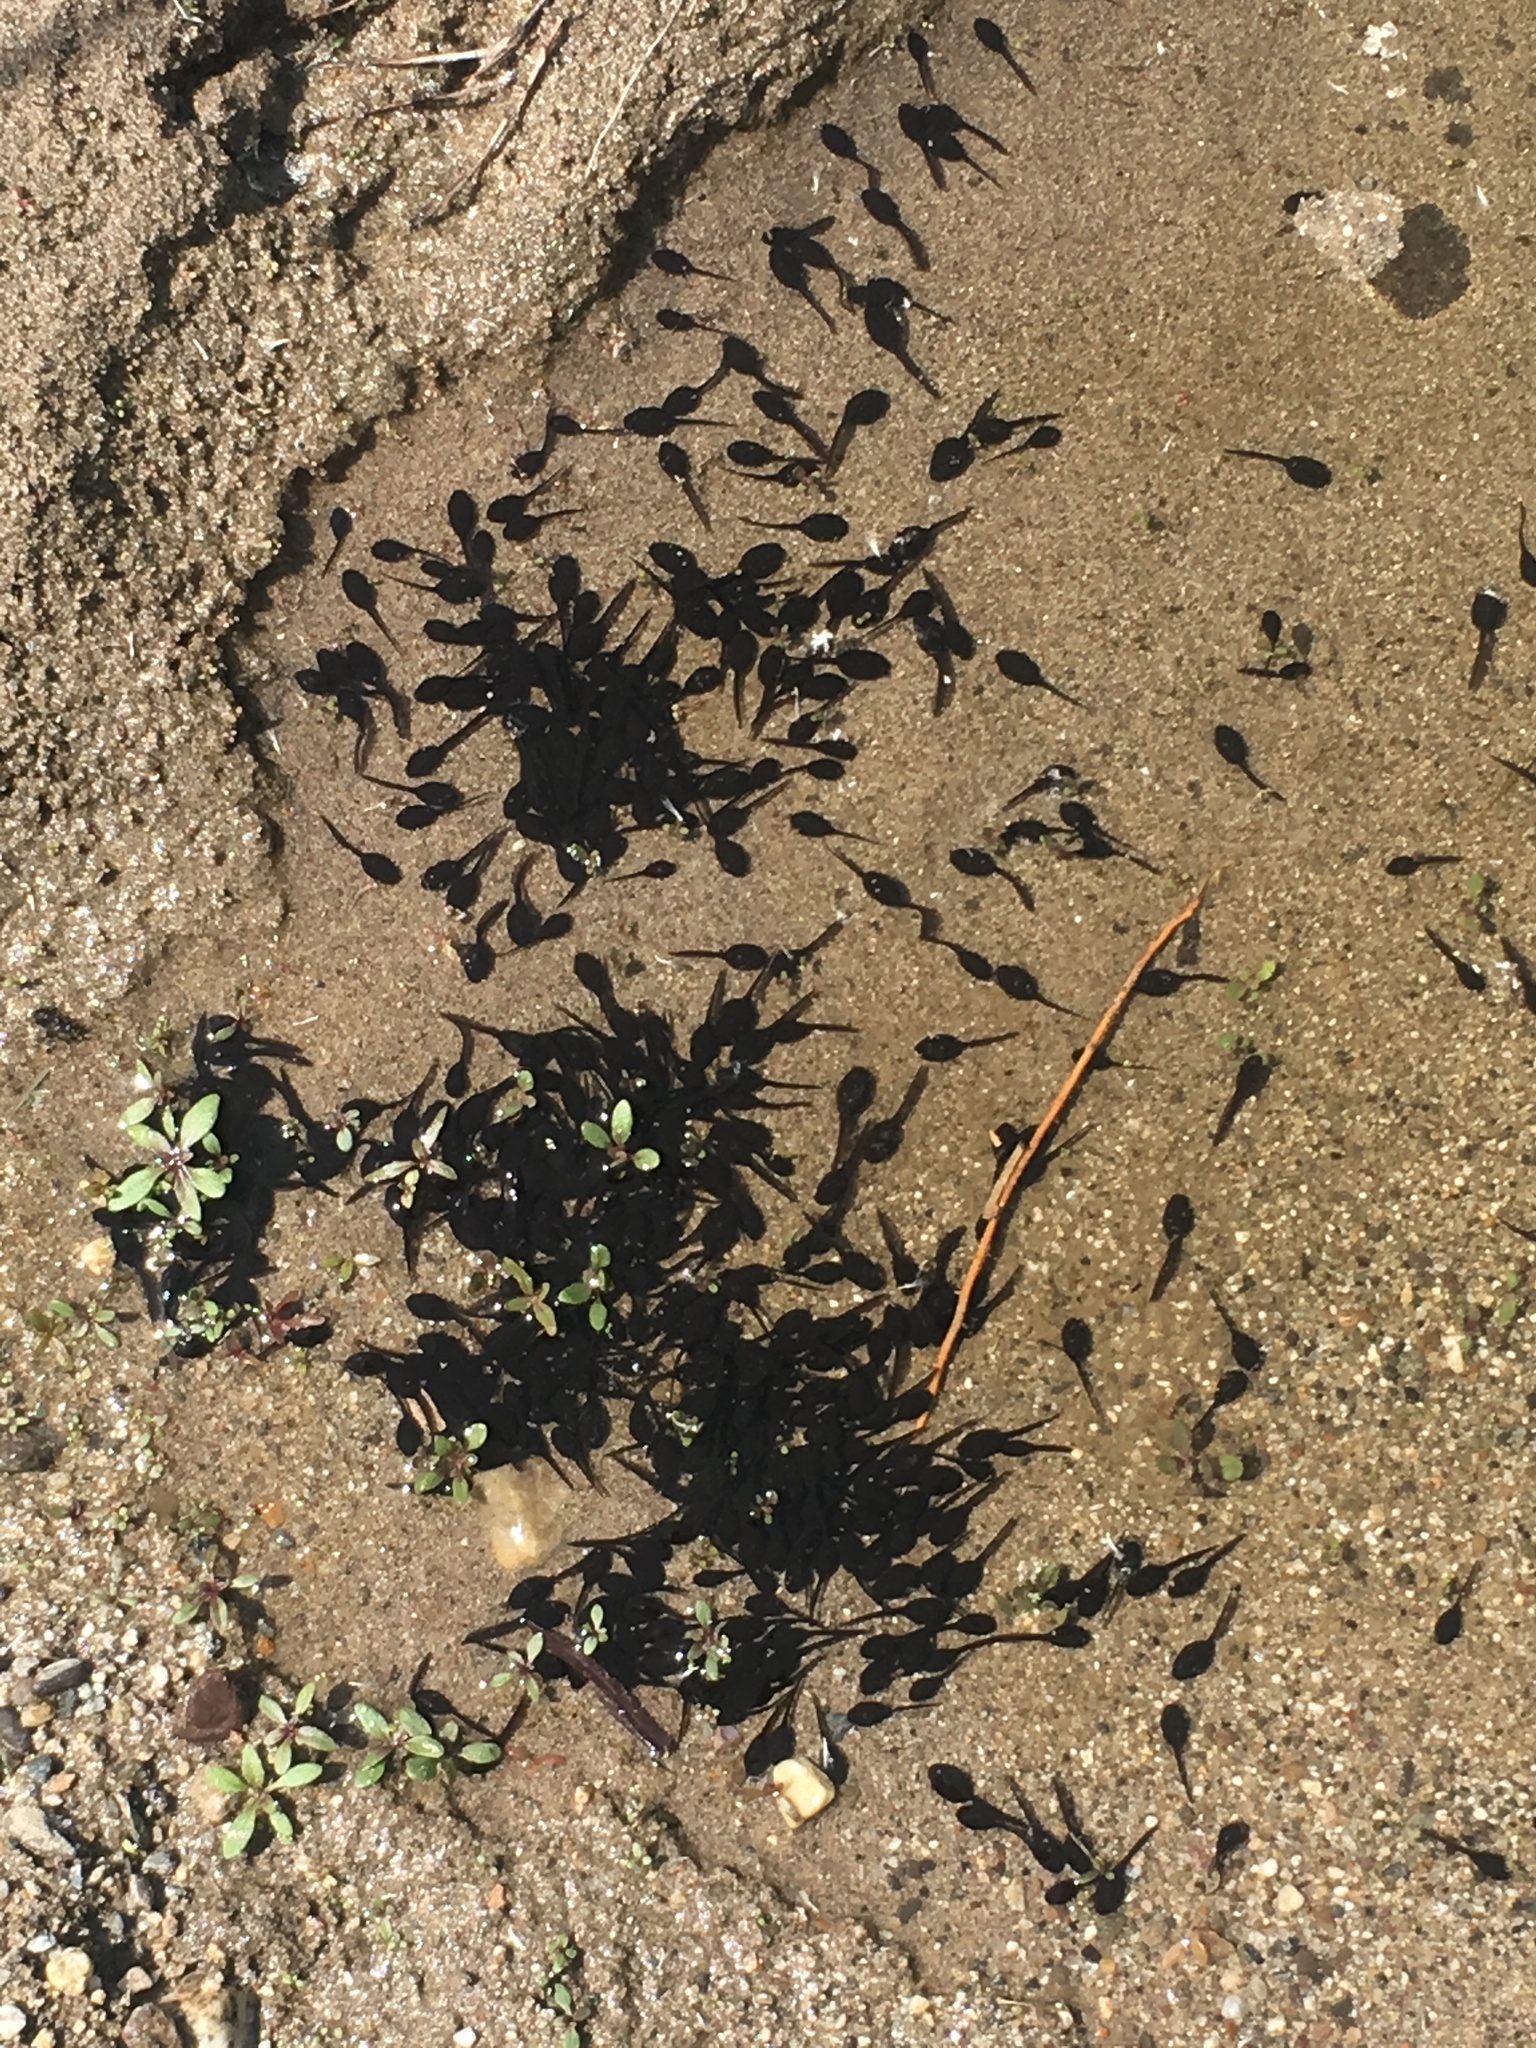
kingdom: Animalia
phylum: Chordata
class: Amphibia
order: Anura
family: Bufonidae
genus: Anaxyrus
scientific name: Anaxyrus boreas
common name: Western toad
